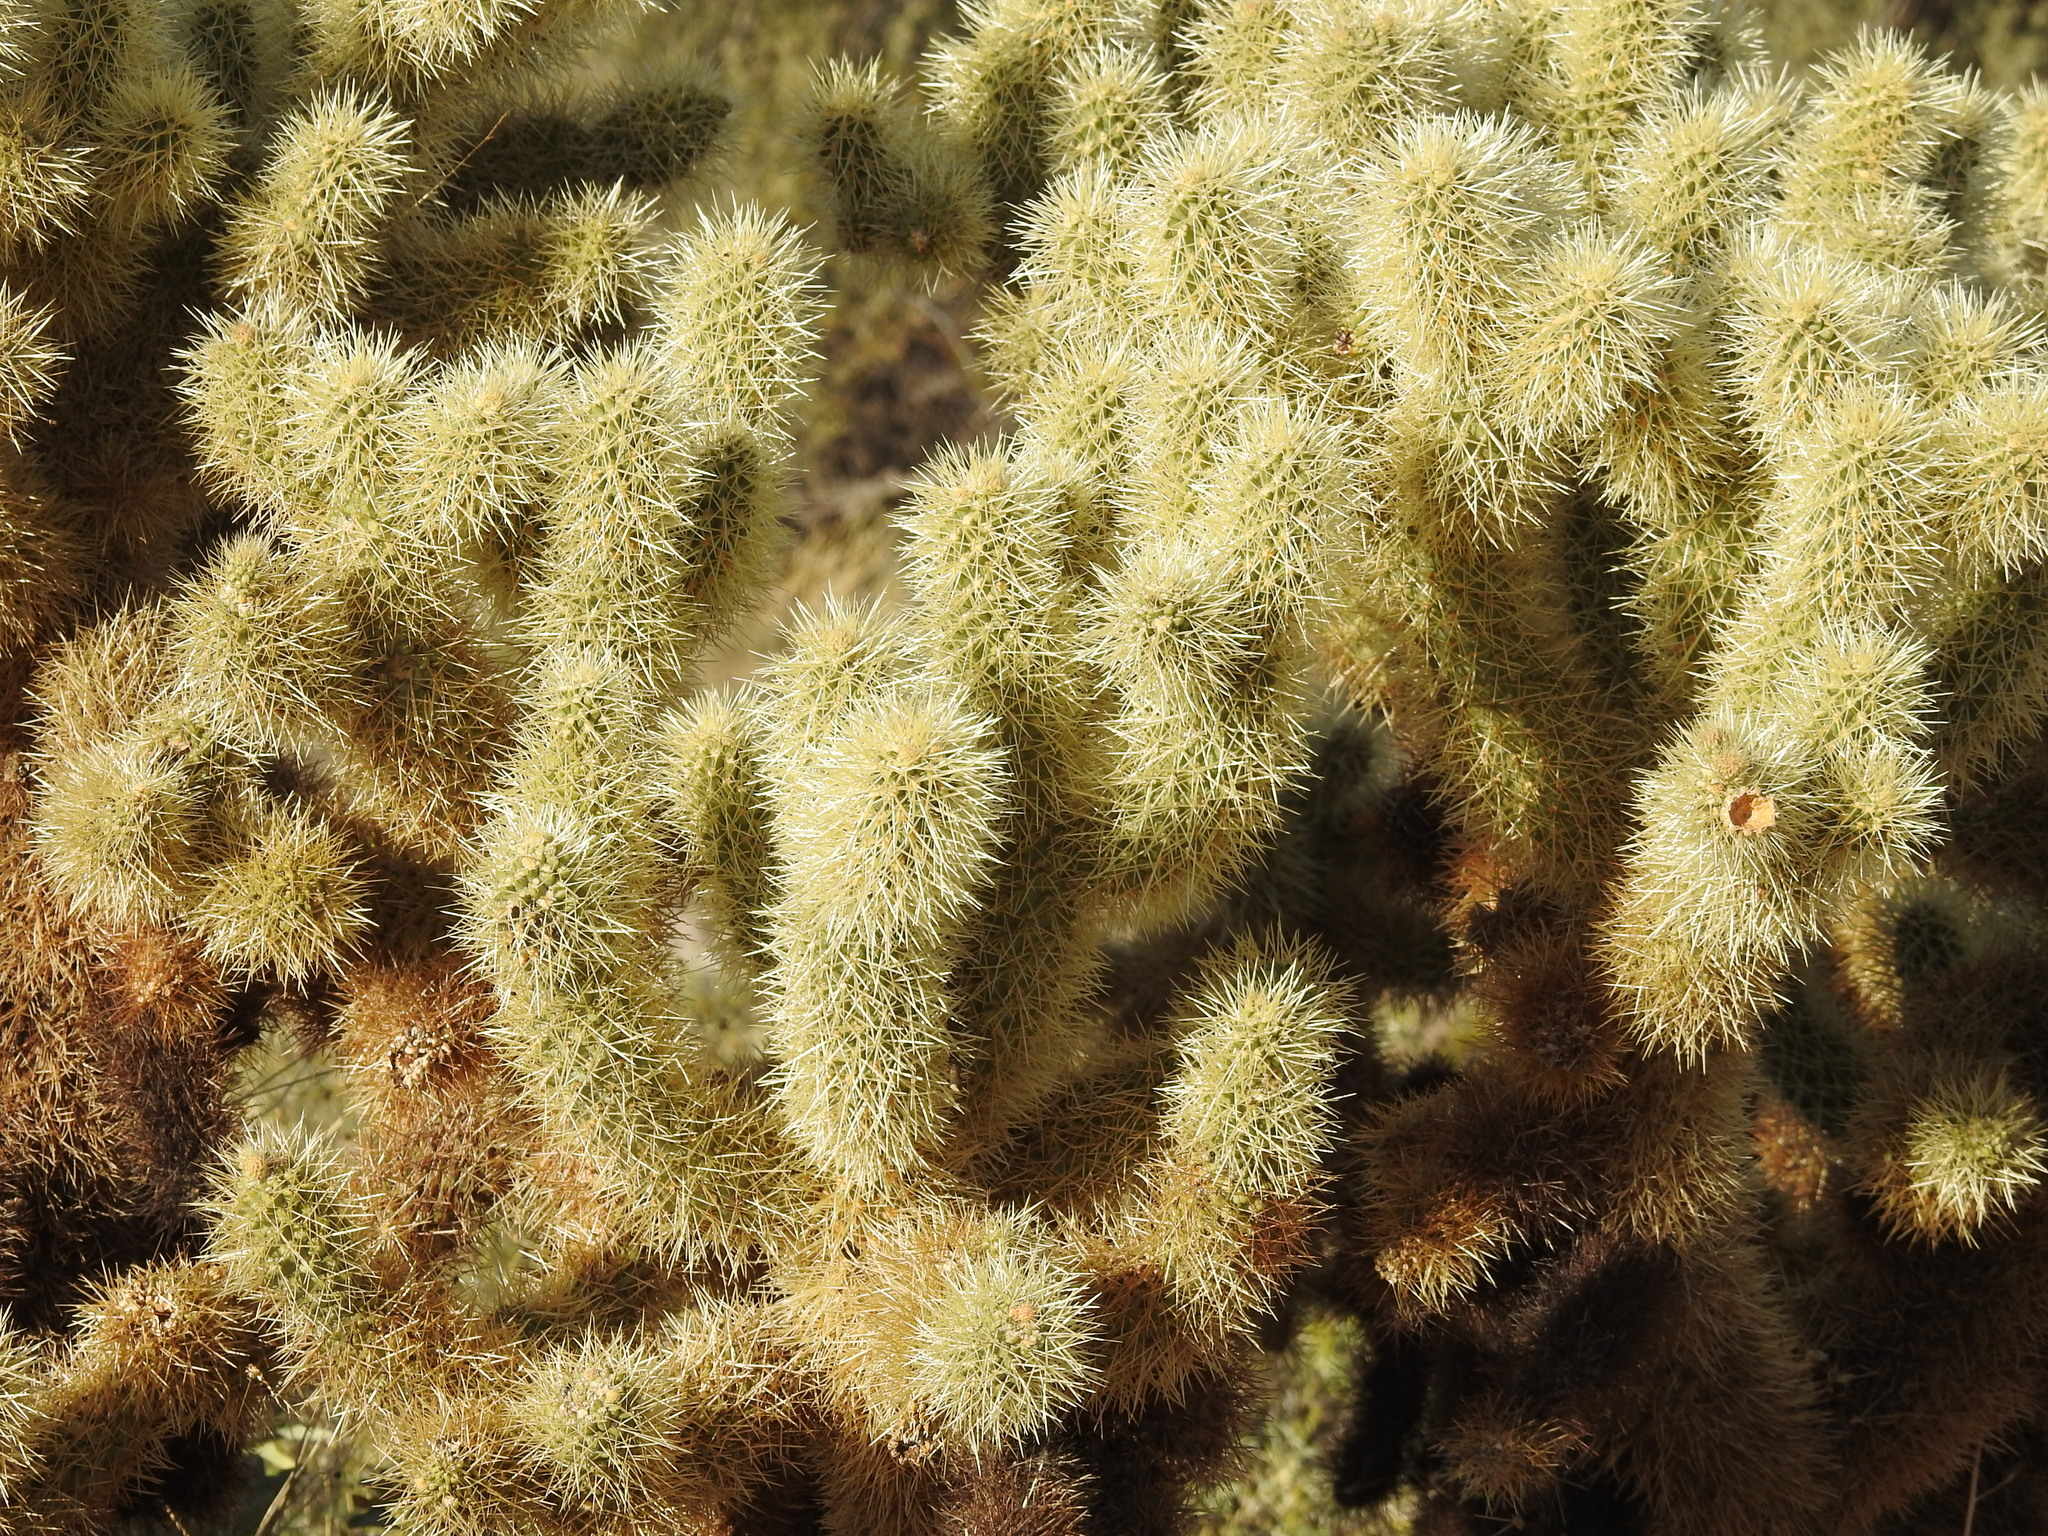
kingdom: Plantae
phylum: Tracheophyta
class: Magnoliopsida
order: Caryophyllales
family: Cactaceae
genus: Cylindropuntia
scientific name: Cylindropuntia fosbergii
